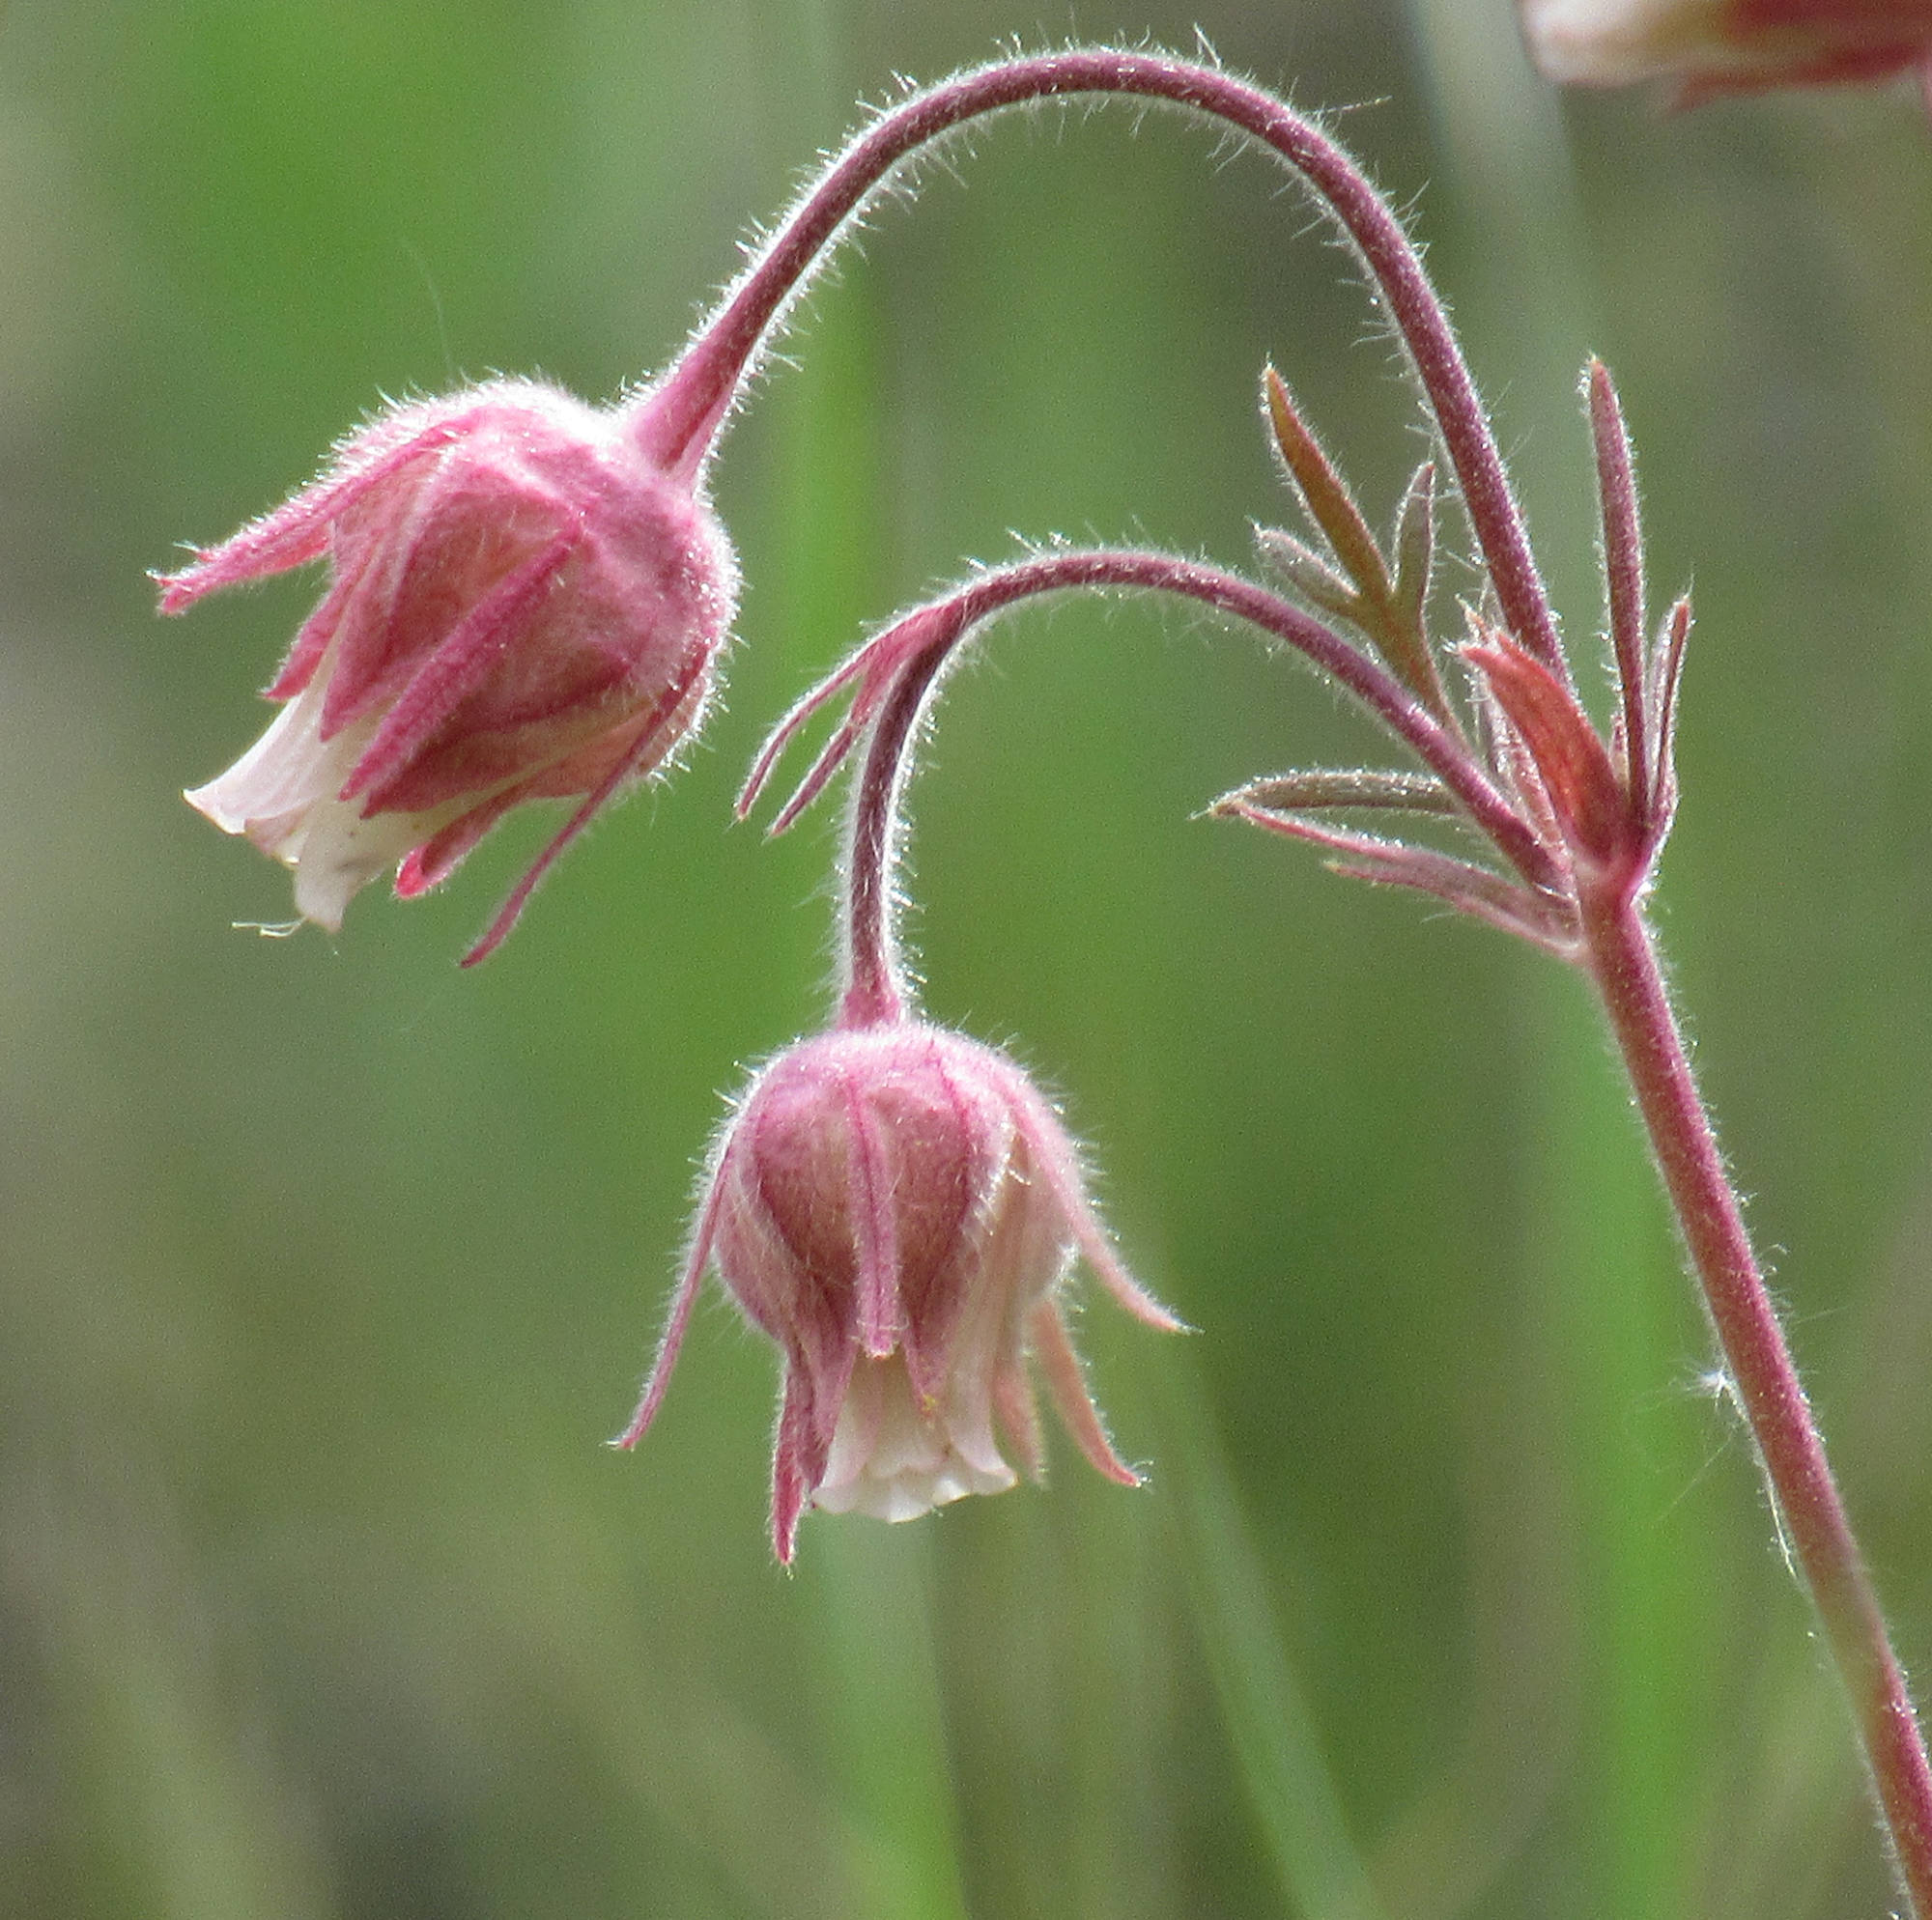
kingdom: Plantae
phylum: Tracheophyta
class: Magnoliopsida
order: Rosales
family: Rosaceae
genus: Geum
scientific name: Geum triflorum
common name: Old man's whiskers
